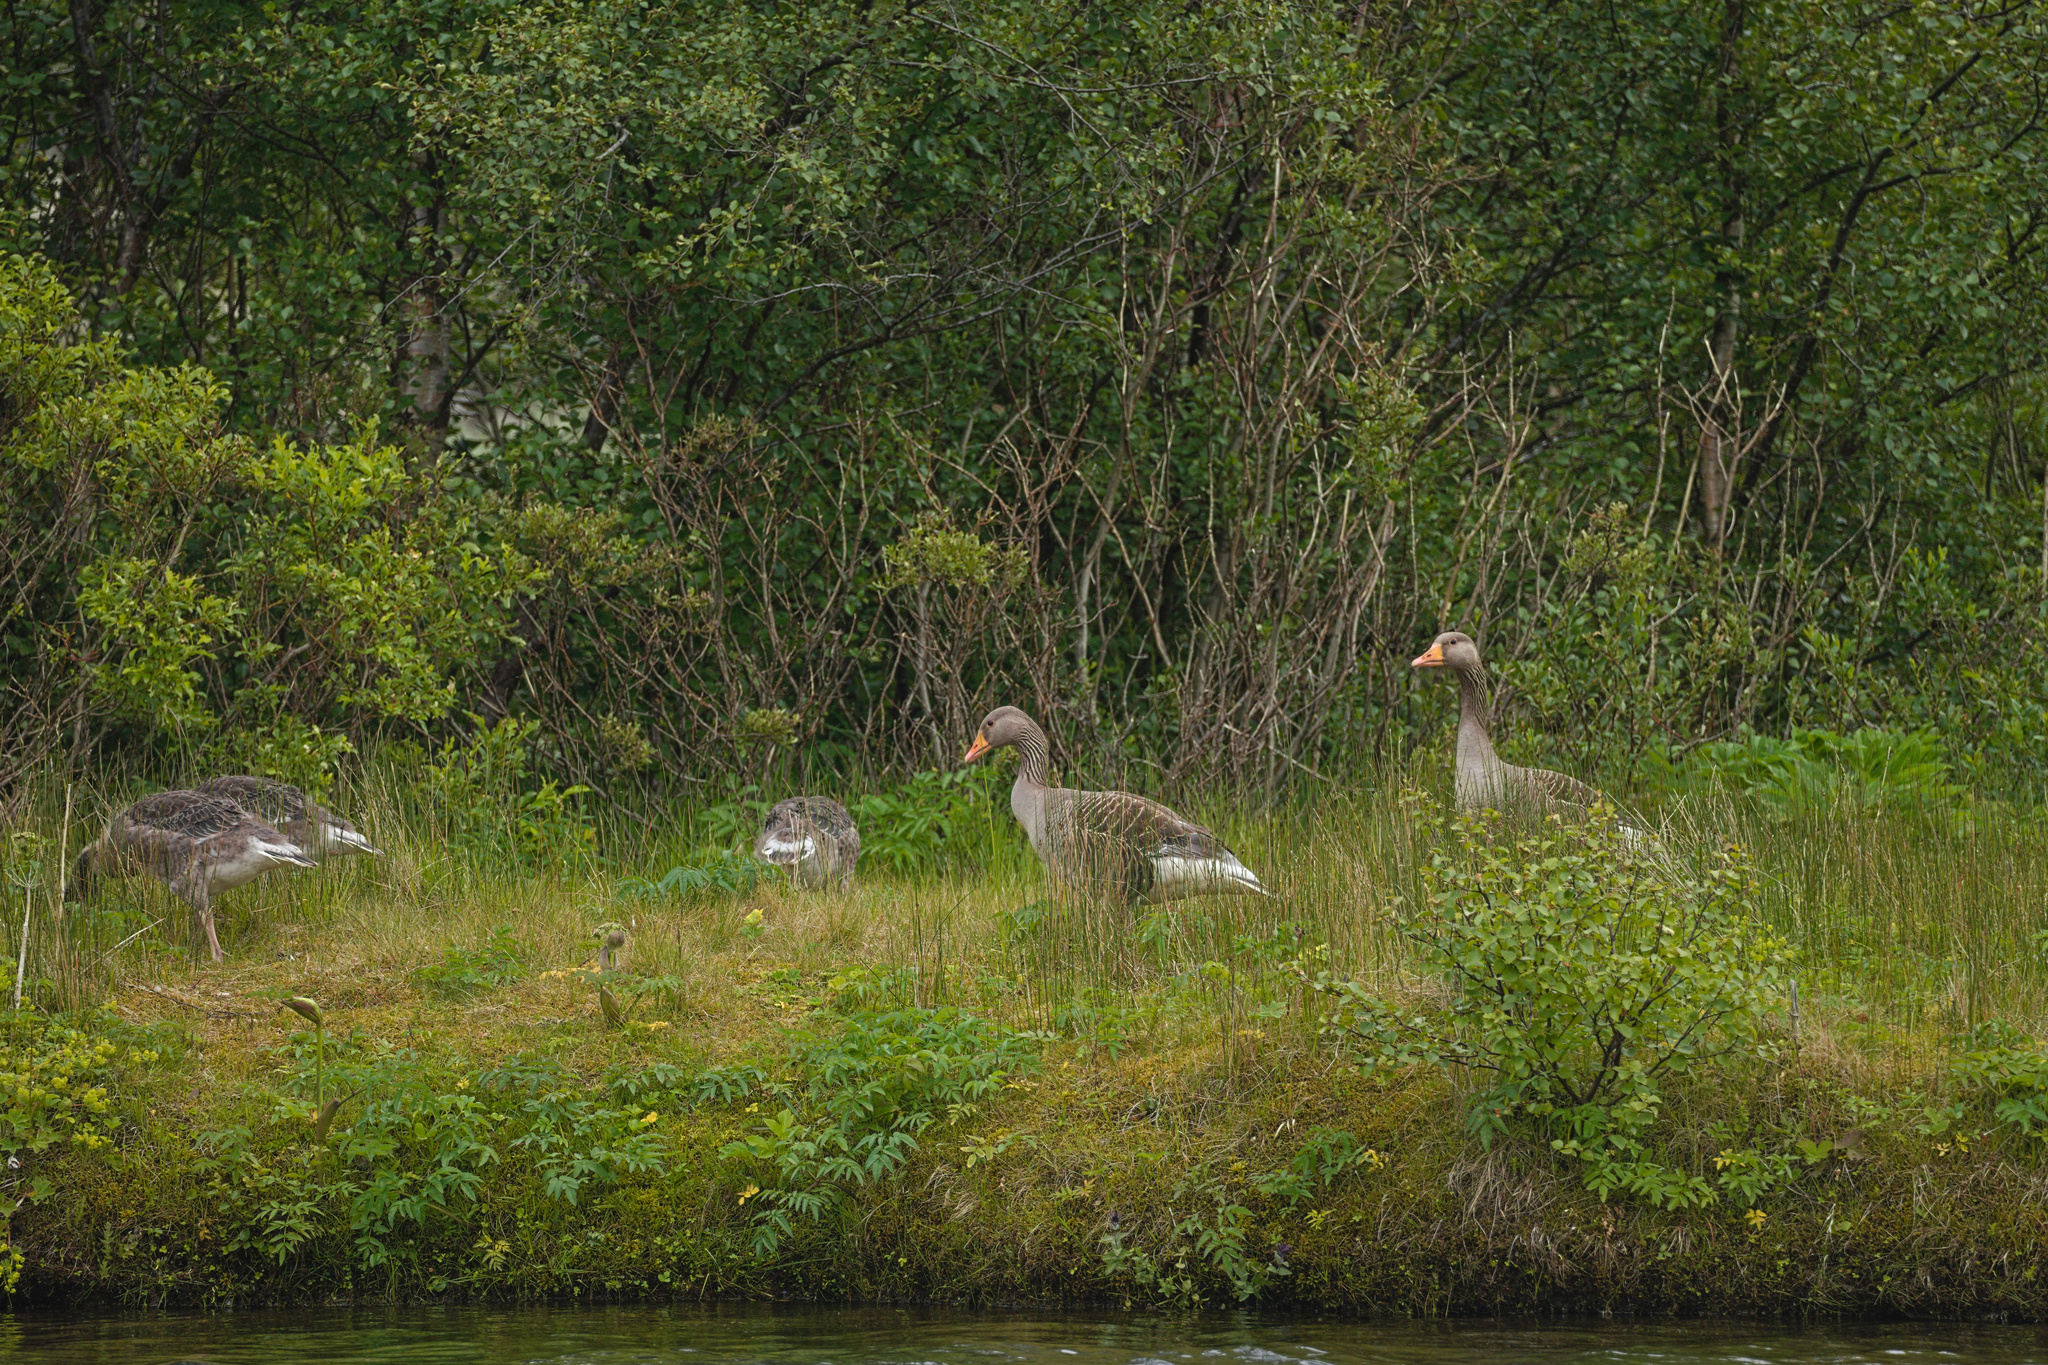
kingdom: Animalia
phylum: Chordata
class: Aves
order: Anseriformes
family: Anatidae
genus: Anser
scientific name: Anser anser
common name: Greylag goose
